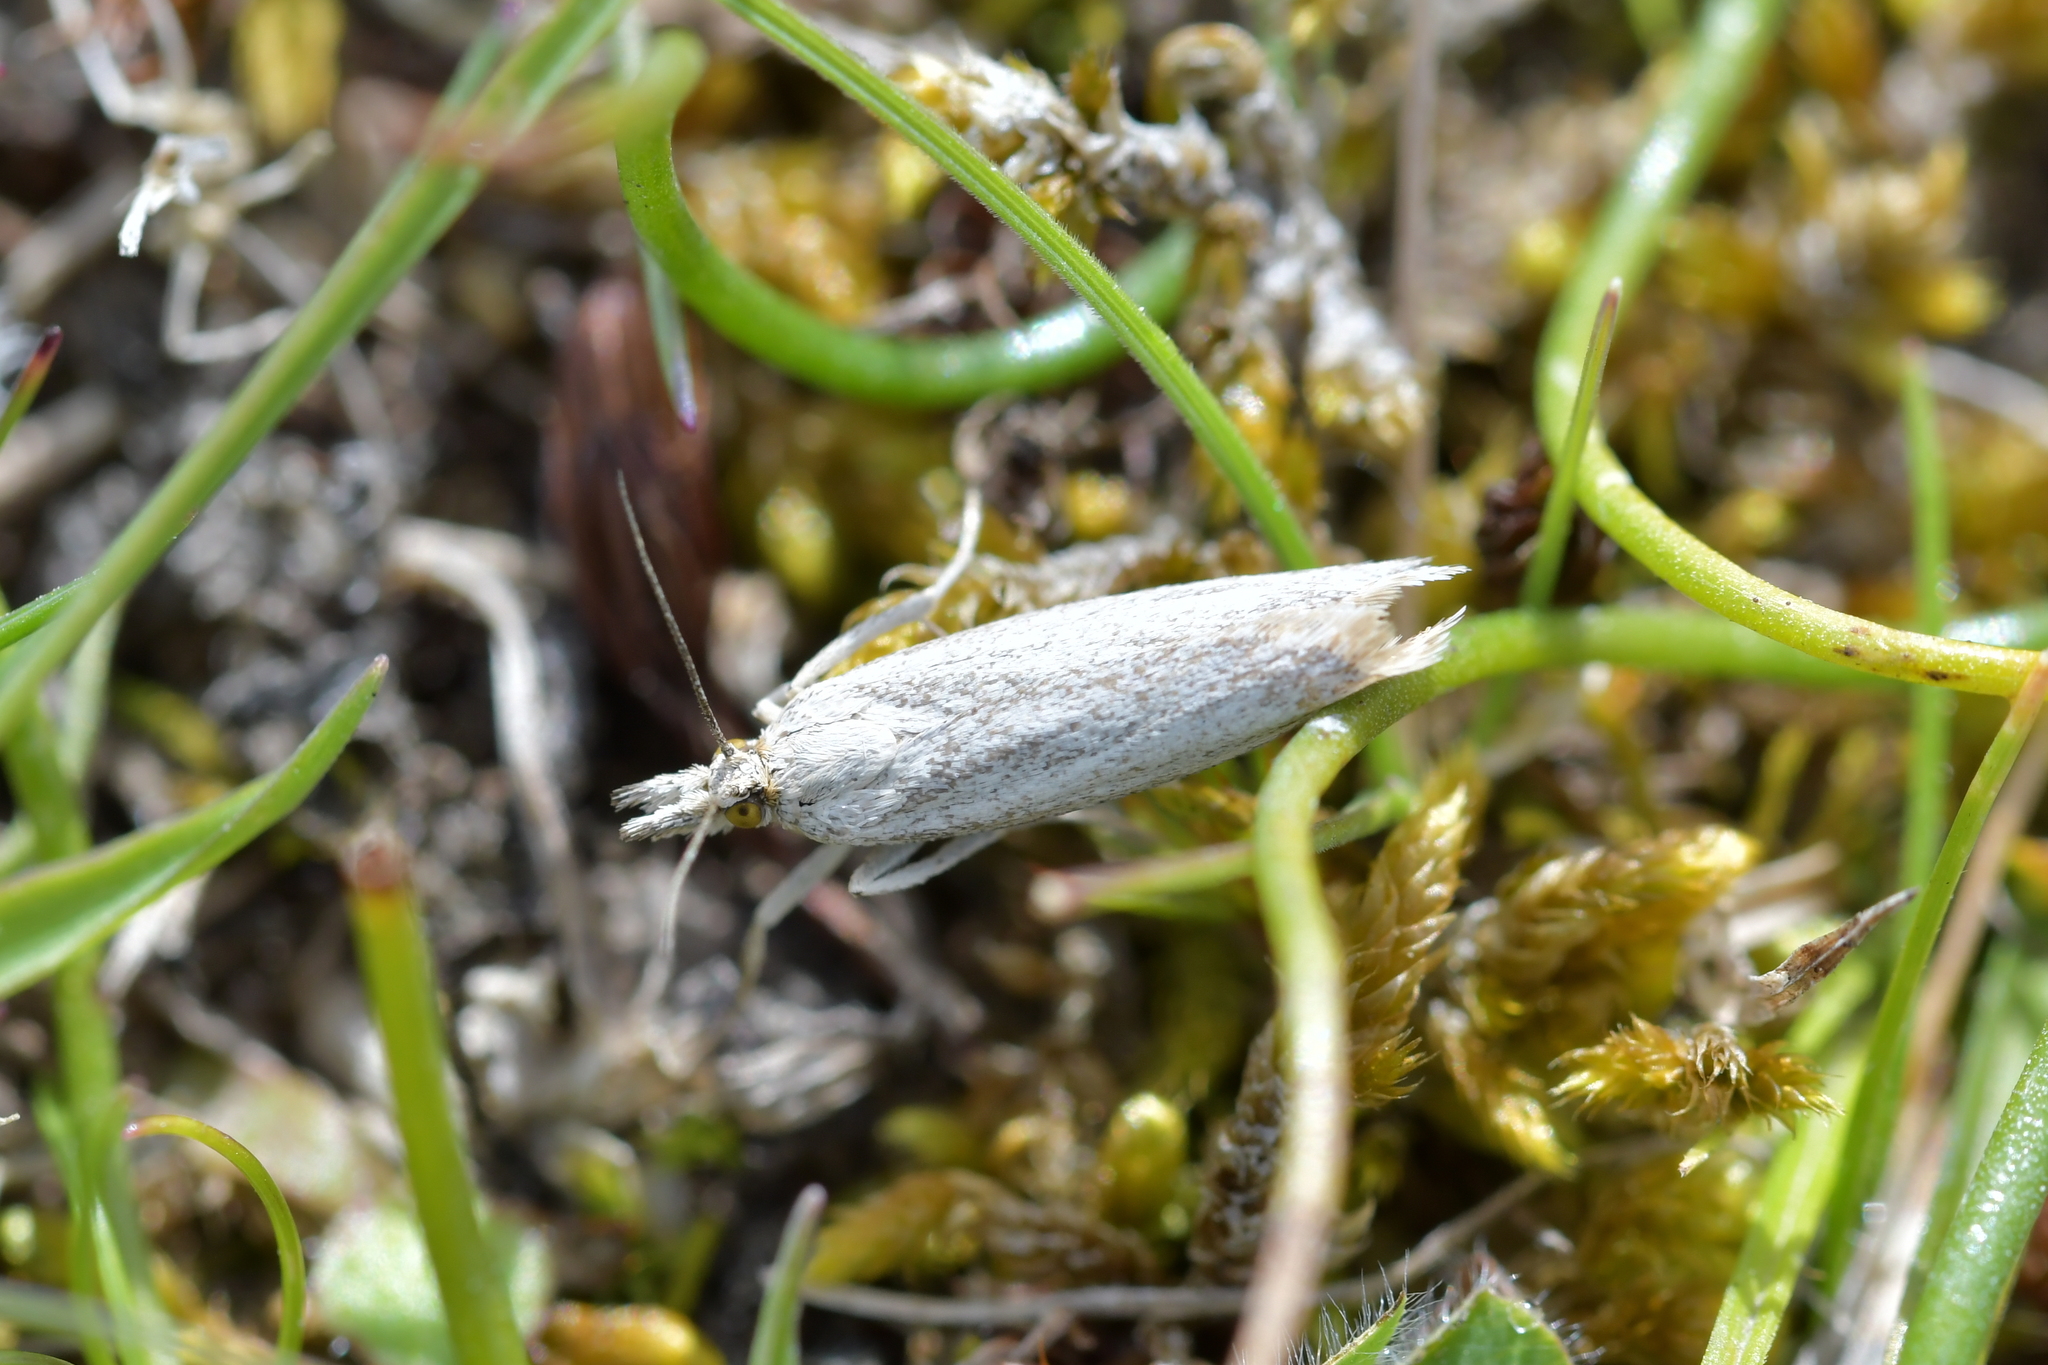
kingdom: Animalia
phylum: Arthropoda
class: Insecta
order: Lepidoptera
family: Crambidae
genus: Orocrambus
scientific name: Orocrambus corruptus
